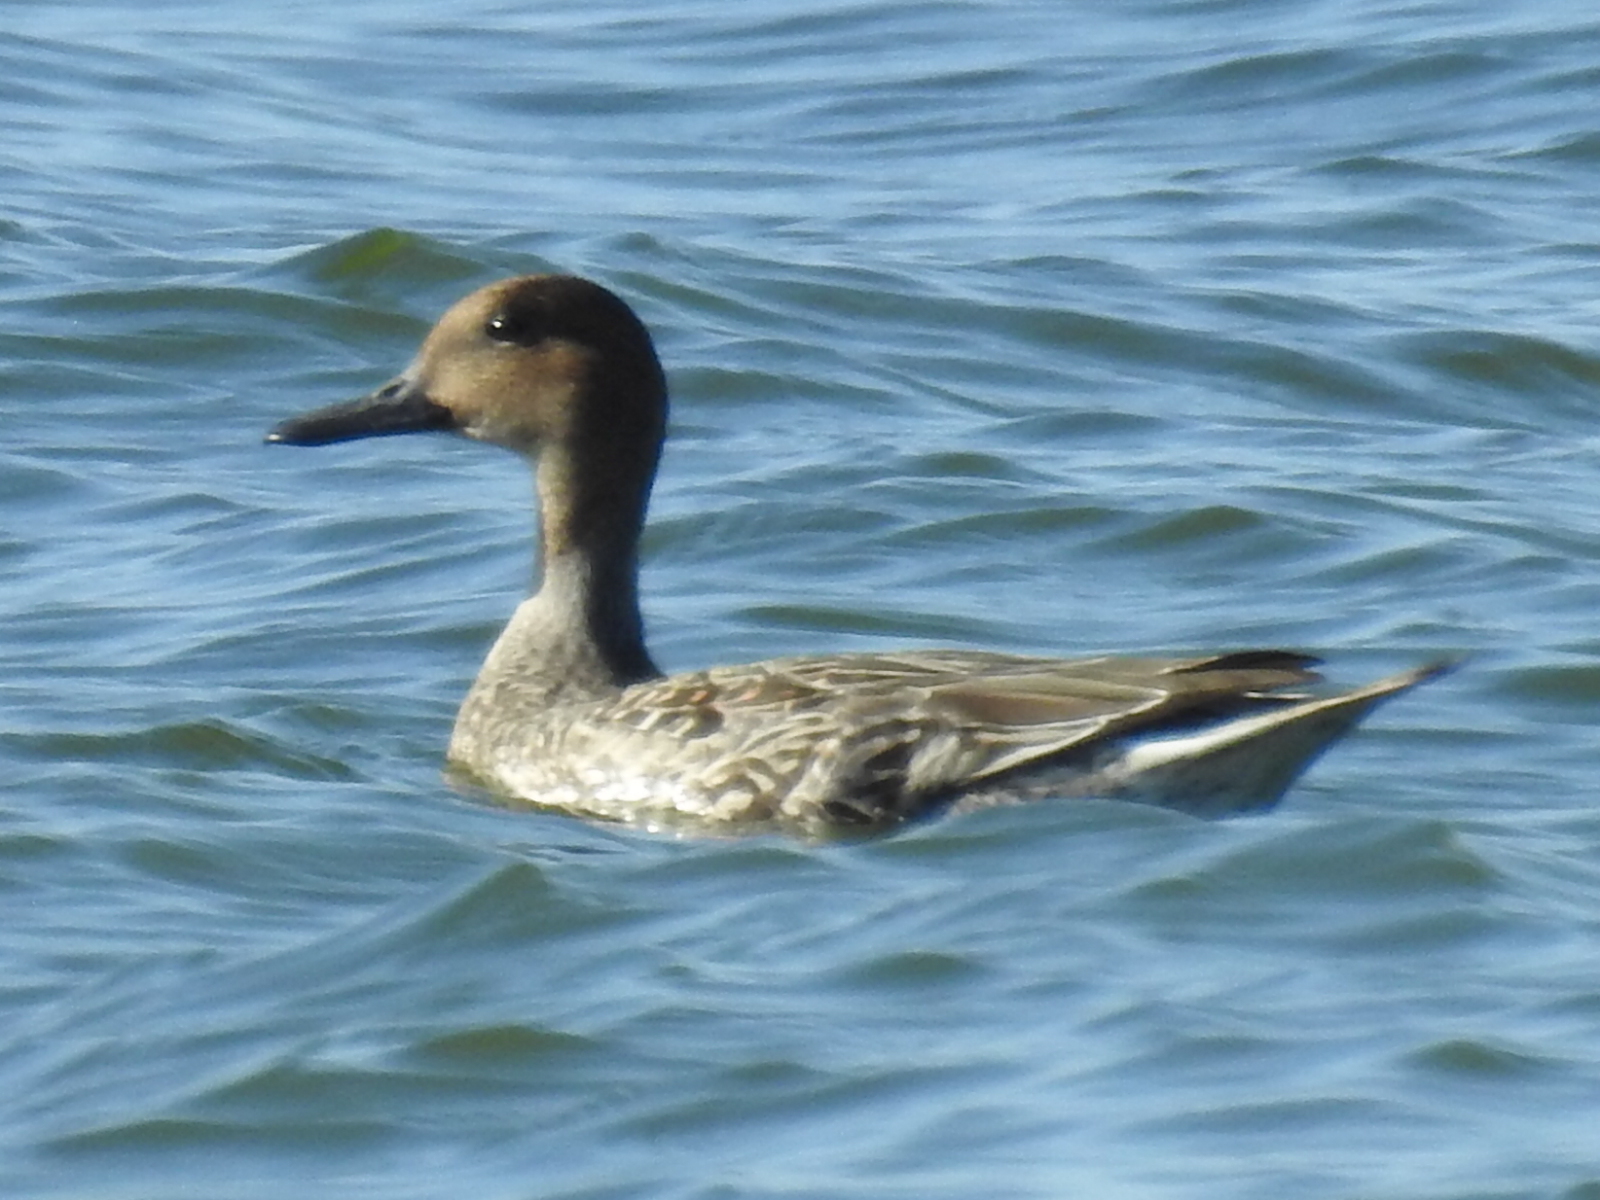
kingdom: Animalia
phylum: Chordata
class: Aves
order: Anseriformes
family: Anatidae
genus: Anas
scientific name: Anas acuta
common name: Northern pintail
